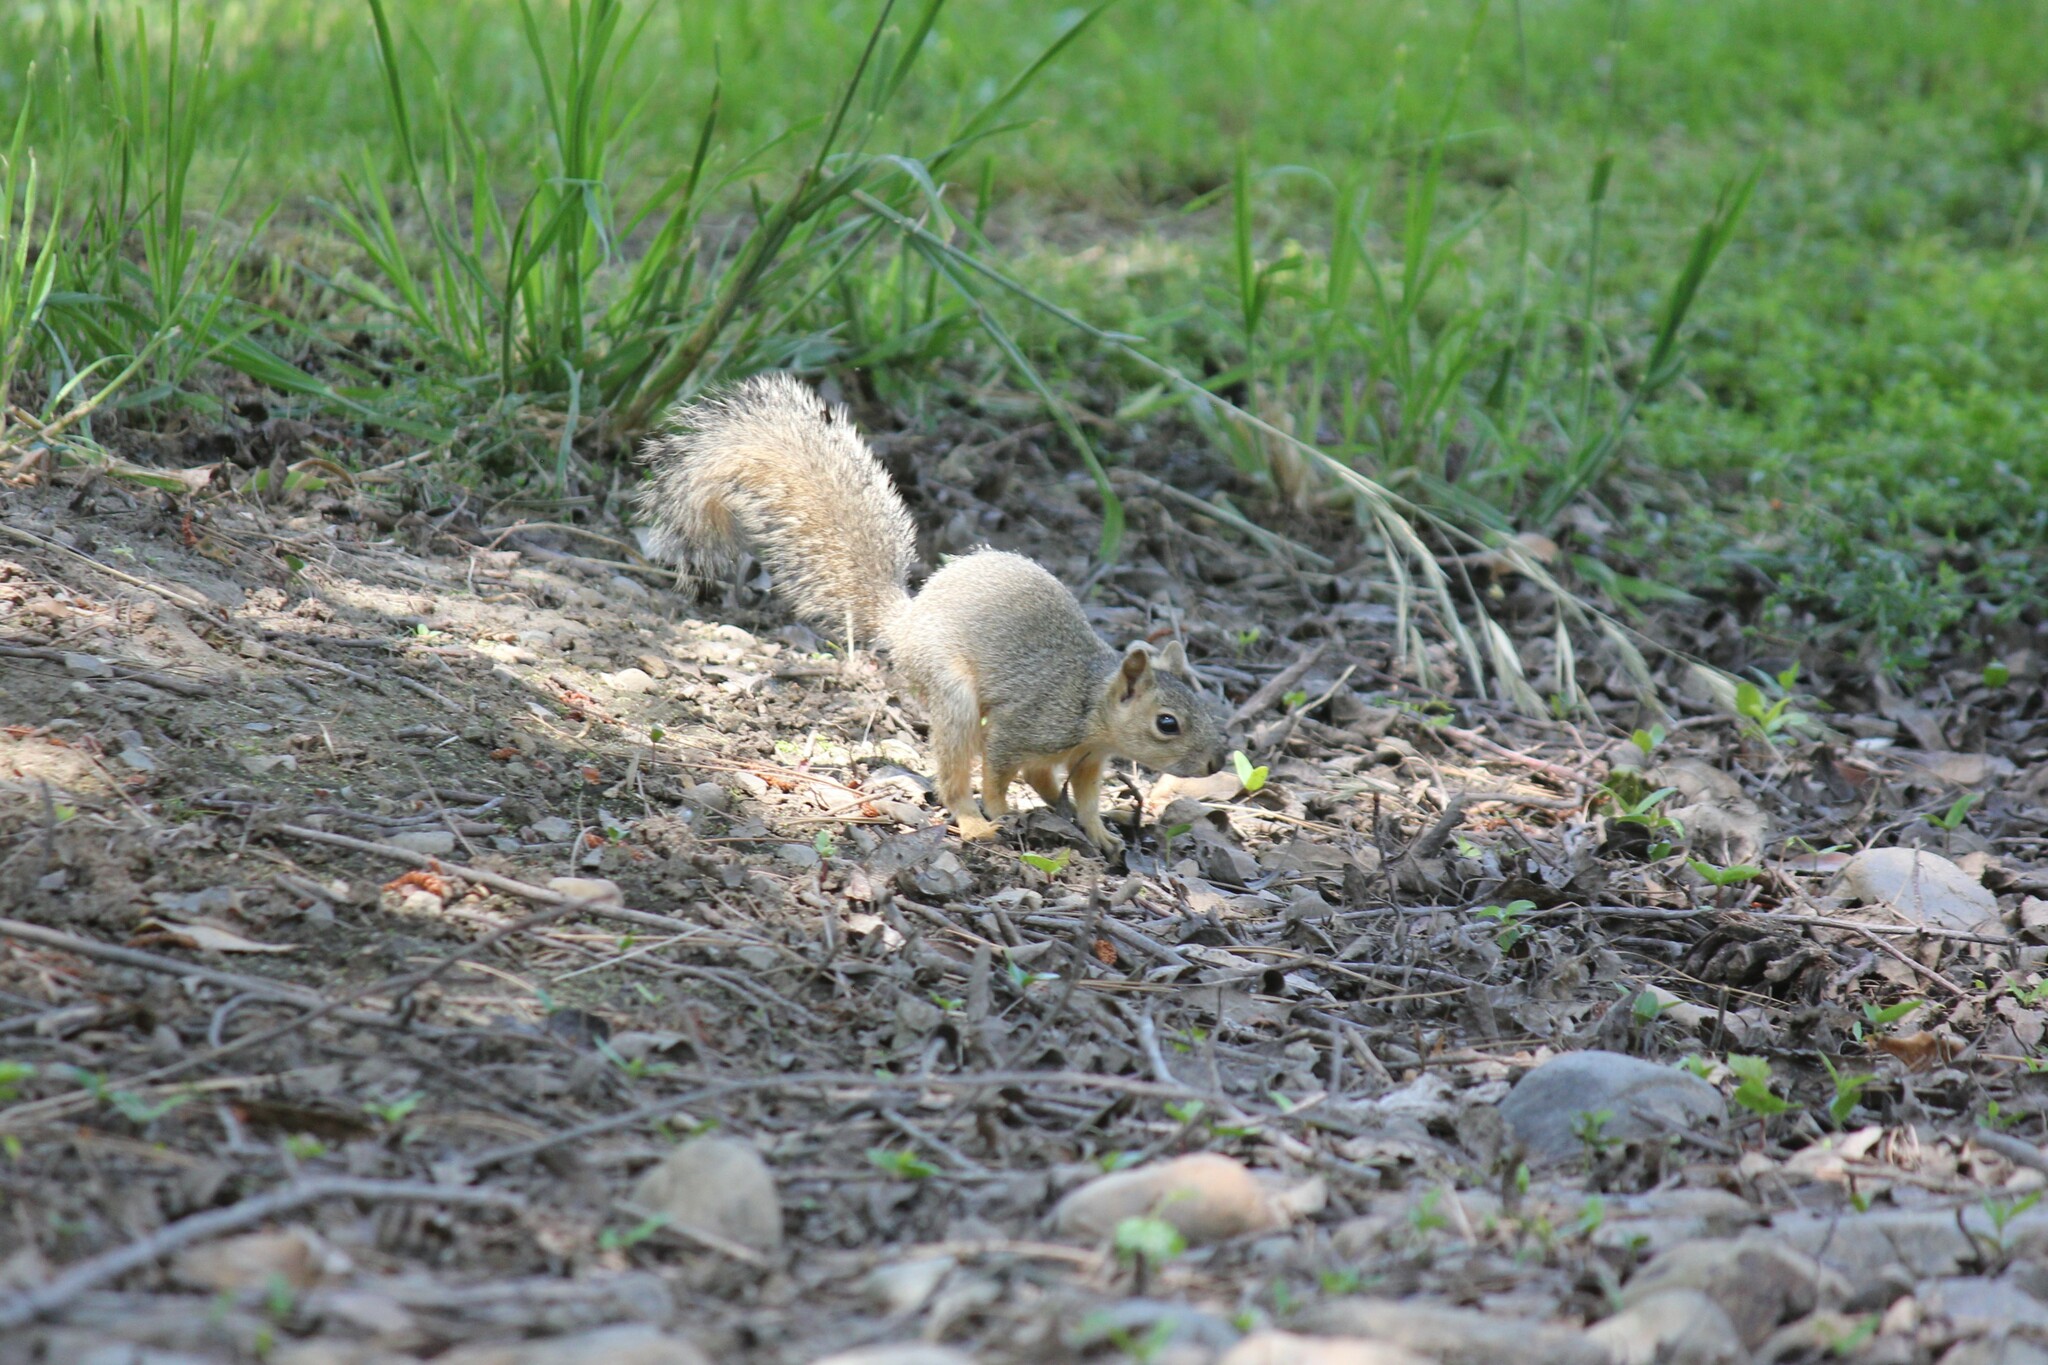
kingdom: Animalia
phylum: Chordata
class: Mammalia
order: Rodentia
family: Sciuridae
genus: Sciurus
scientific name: Sciurus niger
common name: Fox squirrel
